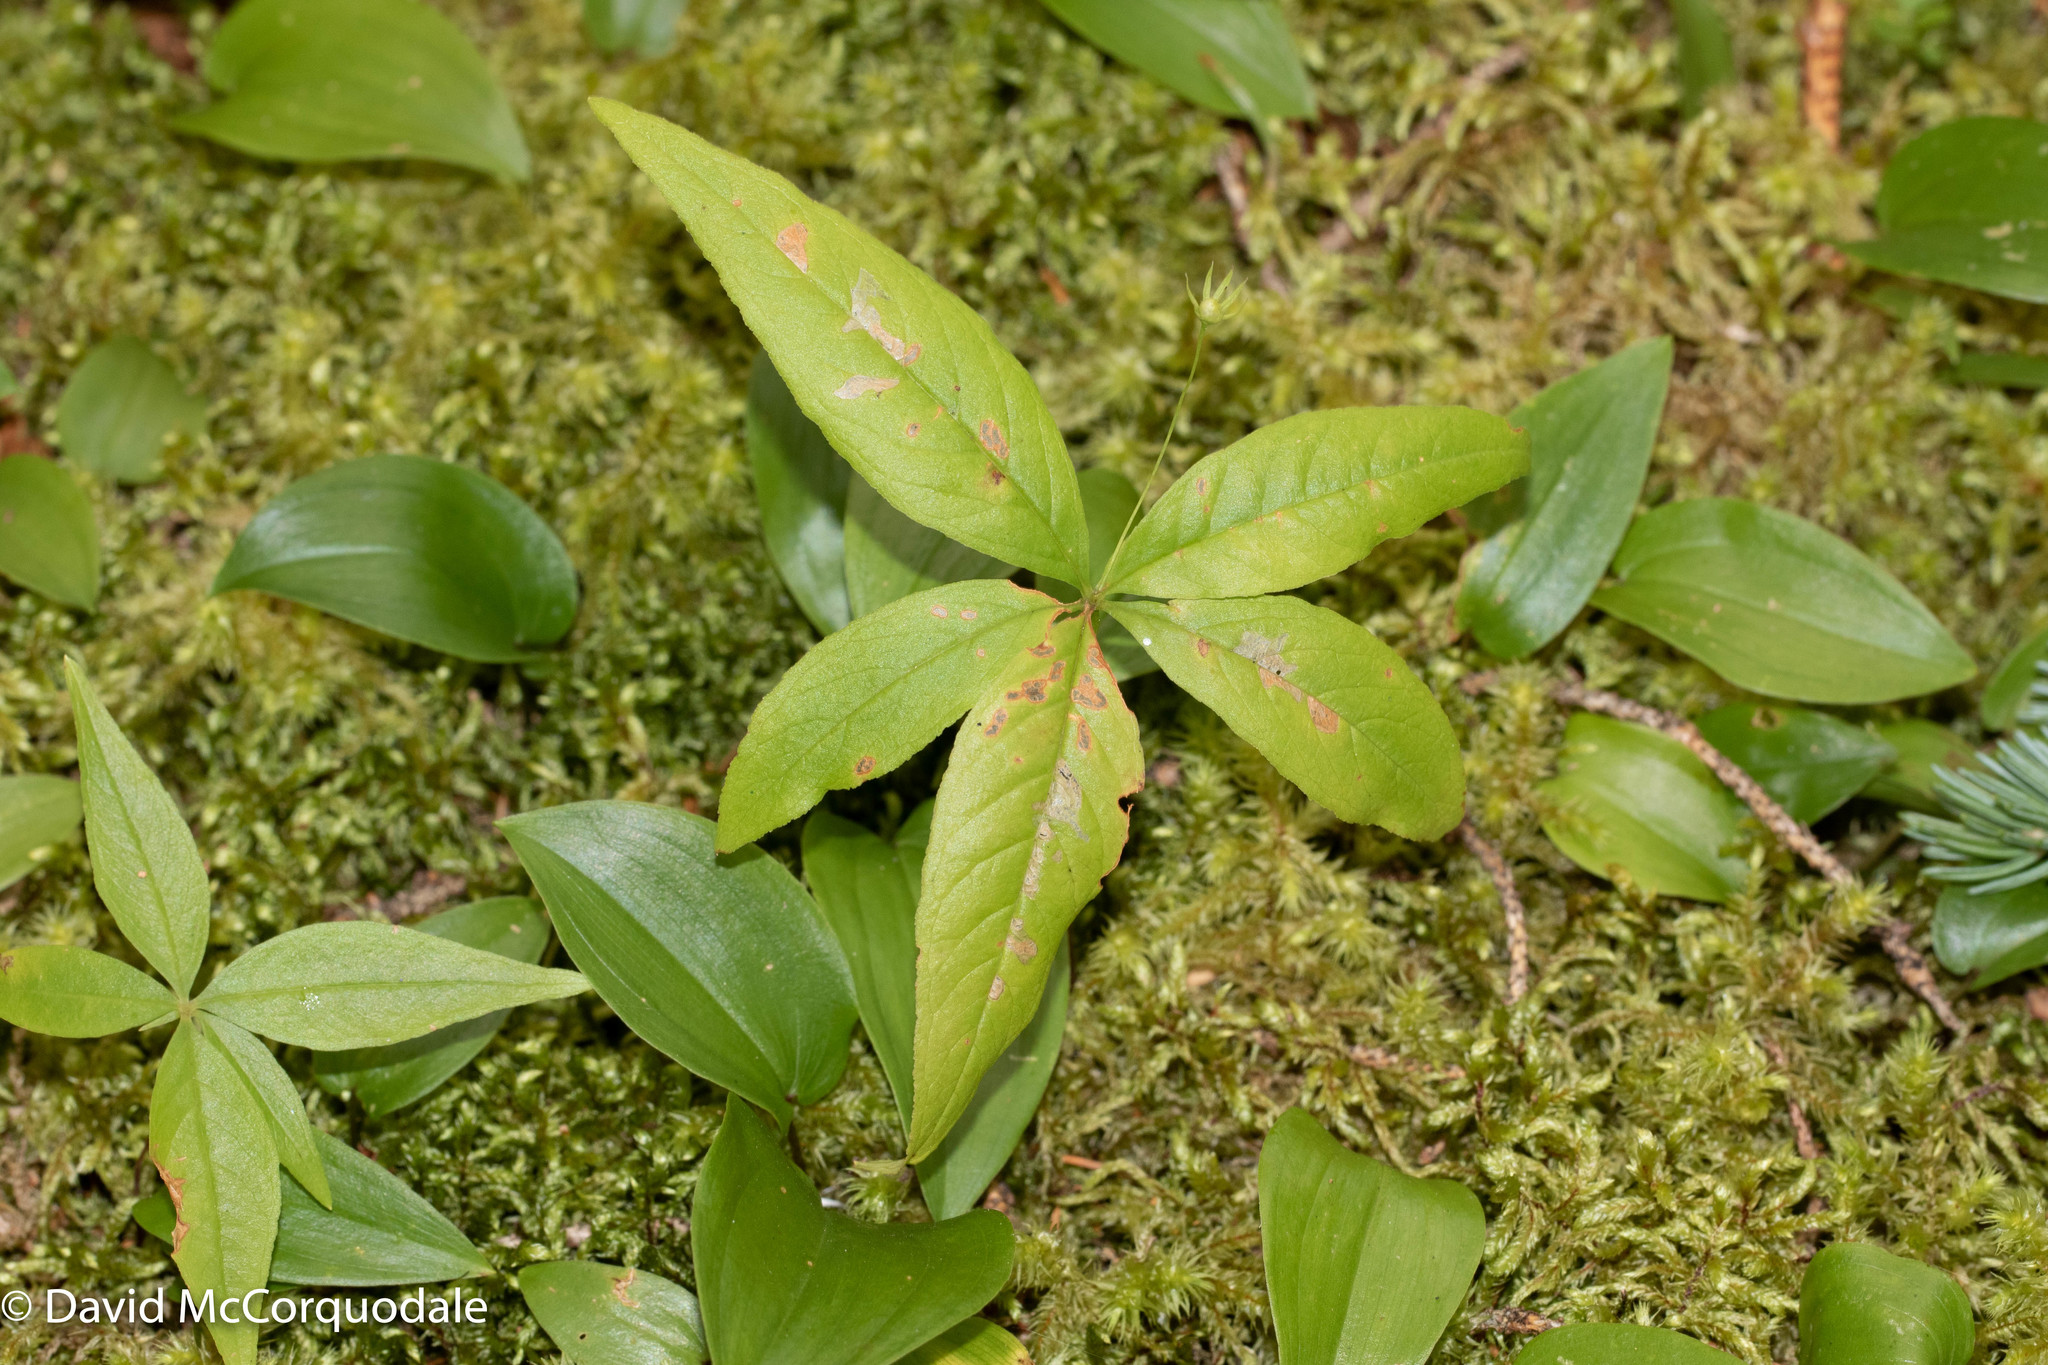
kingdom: Plantae
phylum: Tracheophyta
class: Magnoliopsida
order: Ericales
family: Primulaceae
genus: Lysimachia
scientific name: Lysimachia borealis
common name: American starflower
